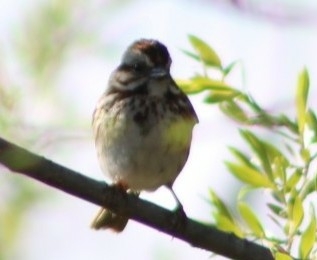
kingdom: Animalia
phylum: Chordata
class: Aves
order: Passeriformes
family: Passerellidae
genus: Melospiza
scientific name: Melospiza melodia
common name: Song sparrow
